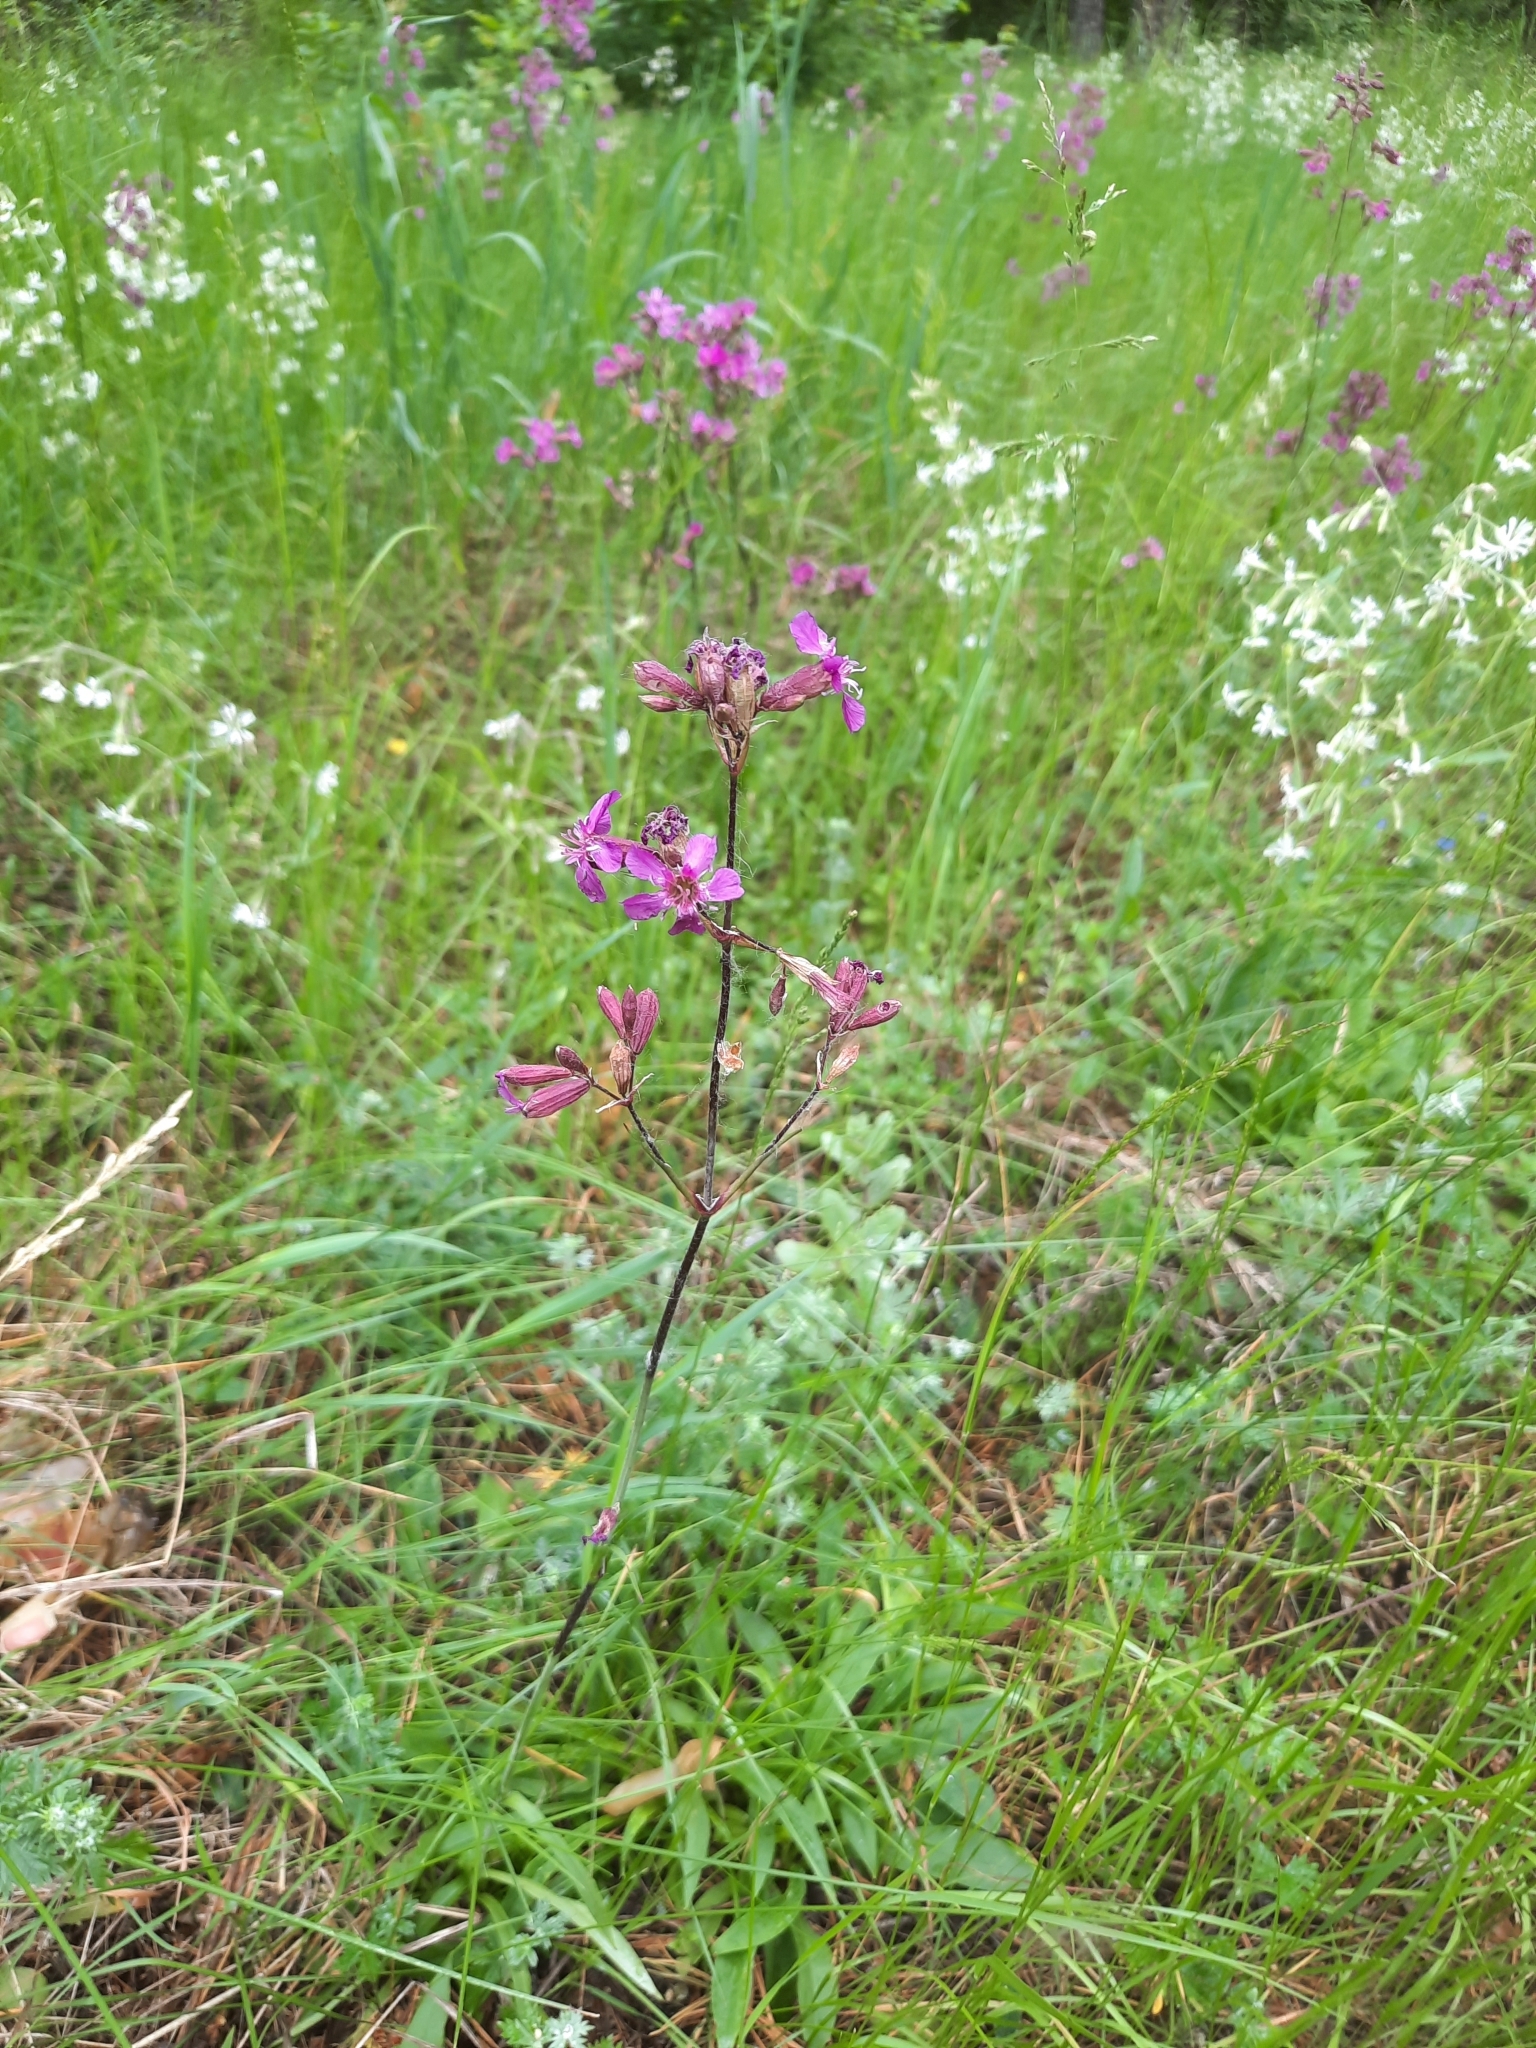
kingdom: Plantae
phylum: Tracheophyta
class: Magnoliopsida
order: Caryophyllales
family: Caryophyllaceae
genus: Viscaria
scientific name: Viscaria vulgaris
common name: Clammy campion
